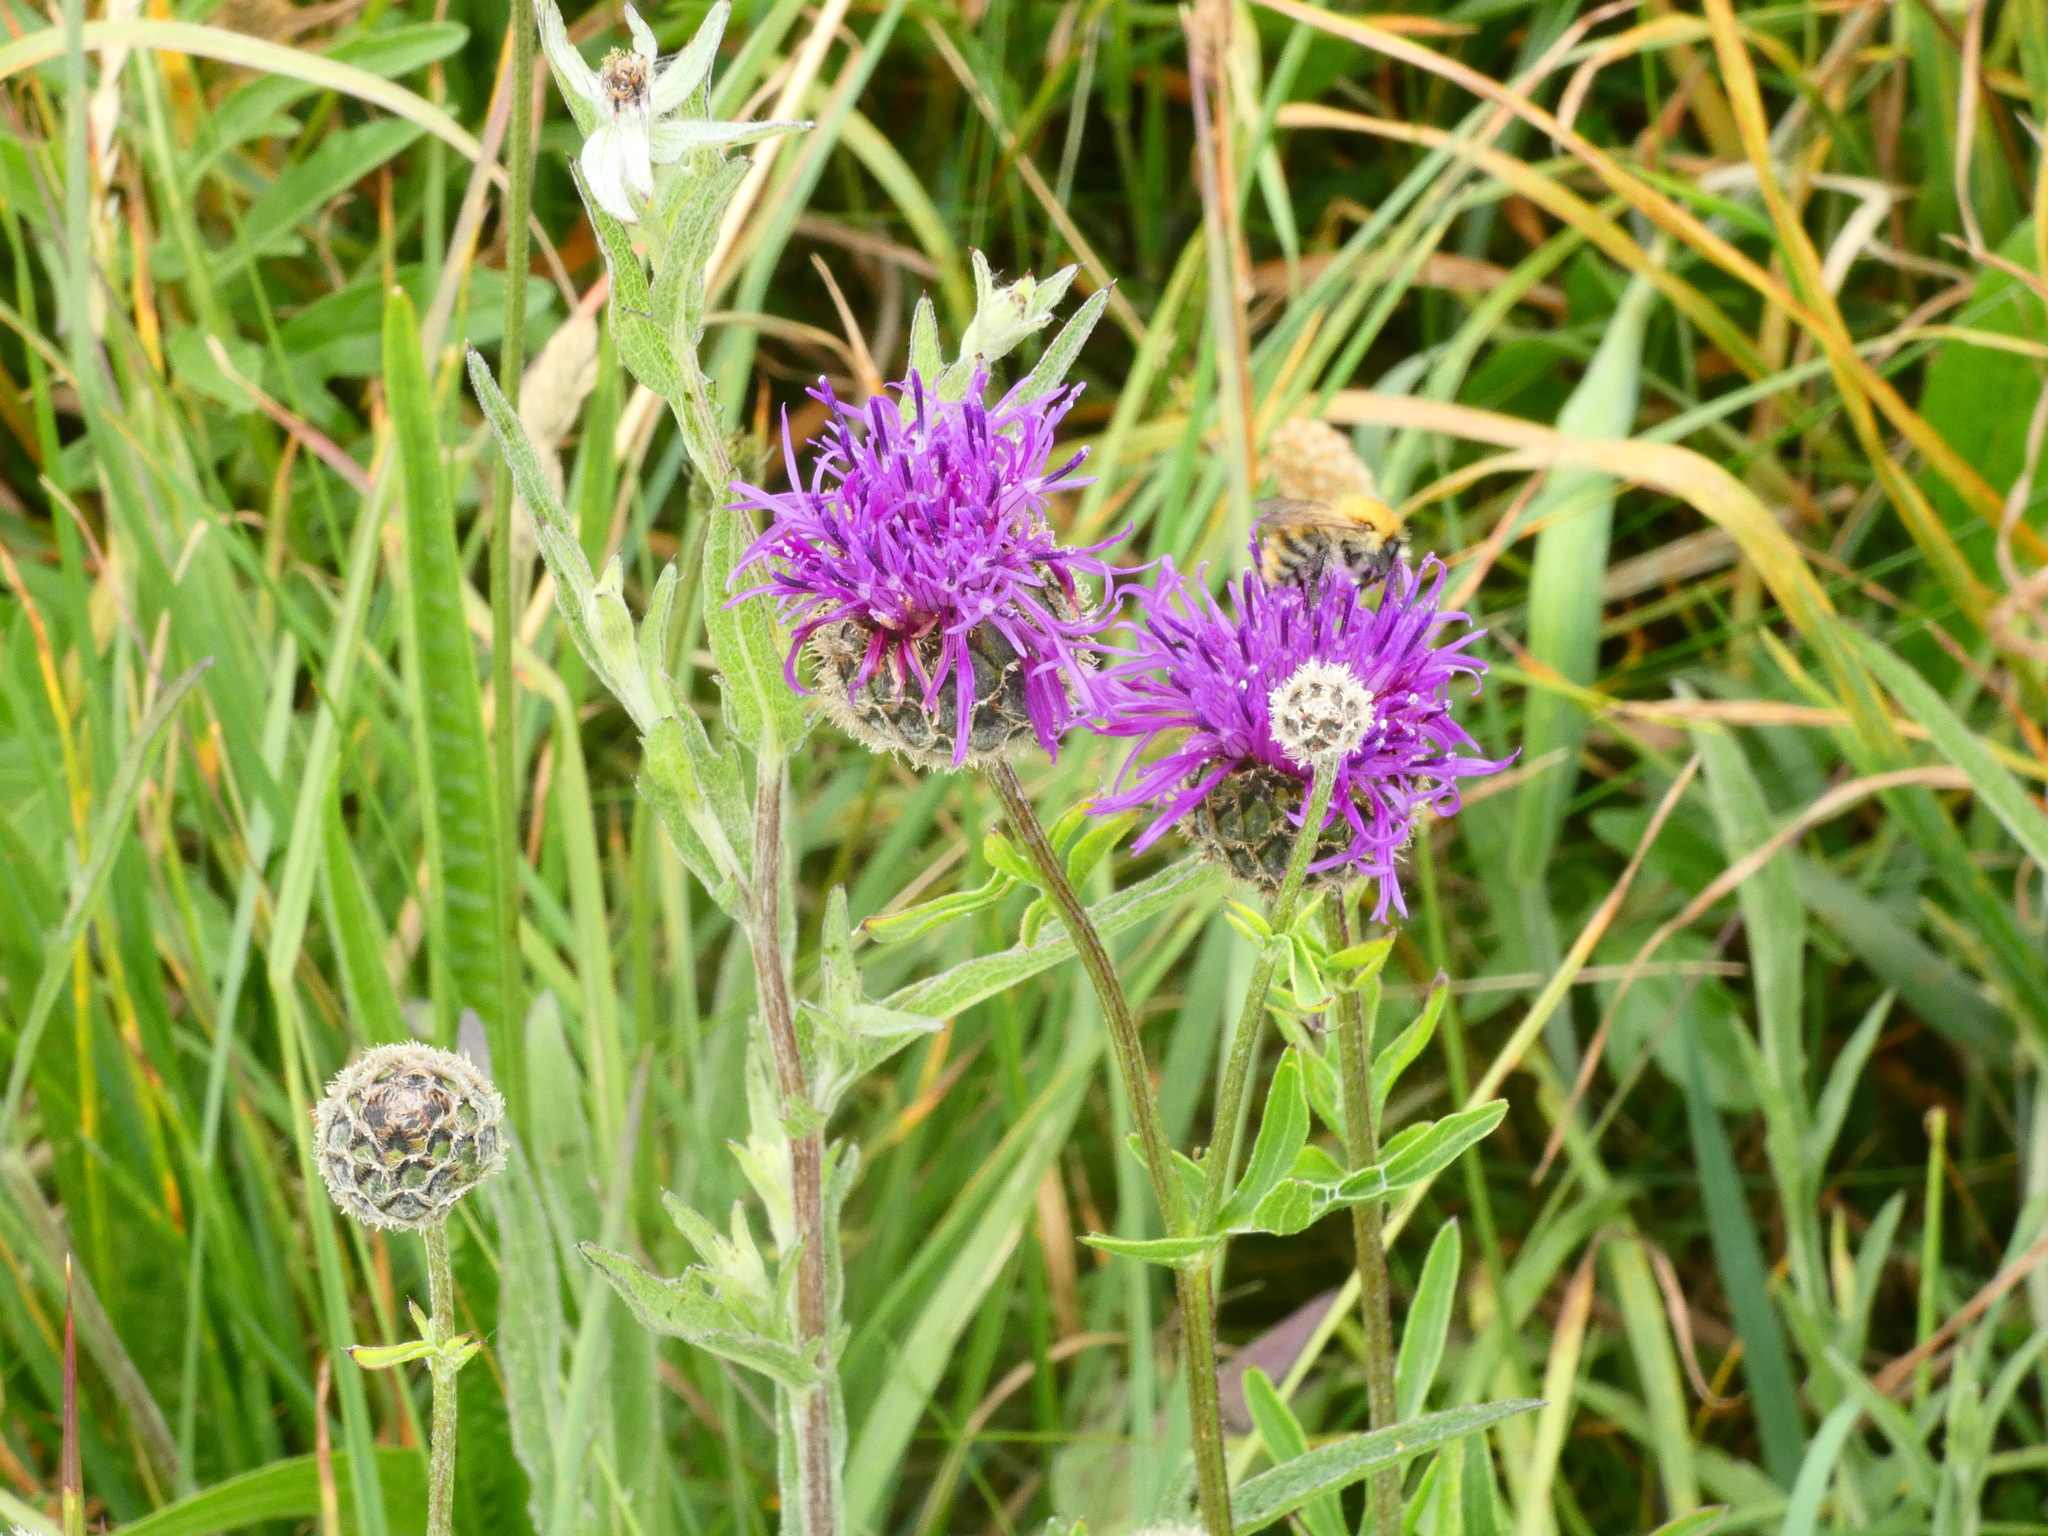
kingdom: Plantae
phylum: Tracheophyta
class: Magnoliopsida
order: Asterales
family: Asteraceae
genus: Centaurea
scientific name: Centaurea scabiosa
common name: Greater knapweed
